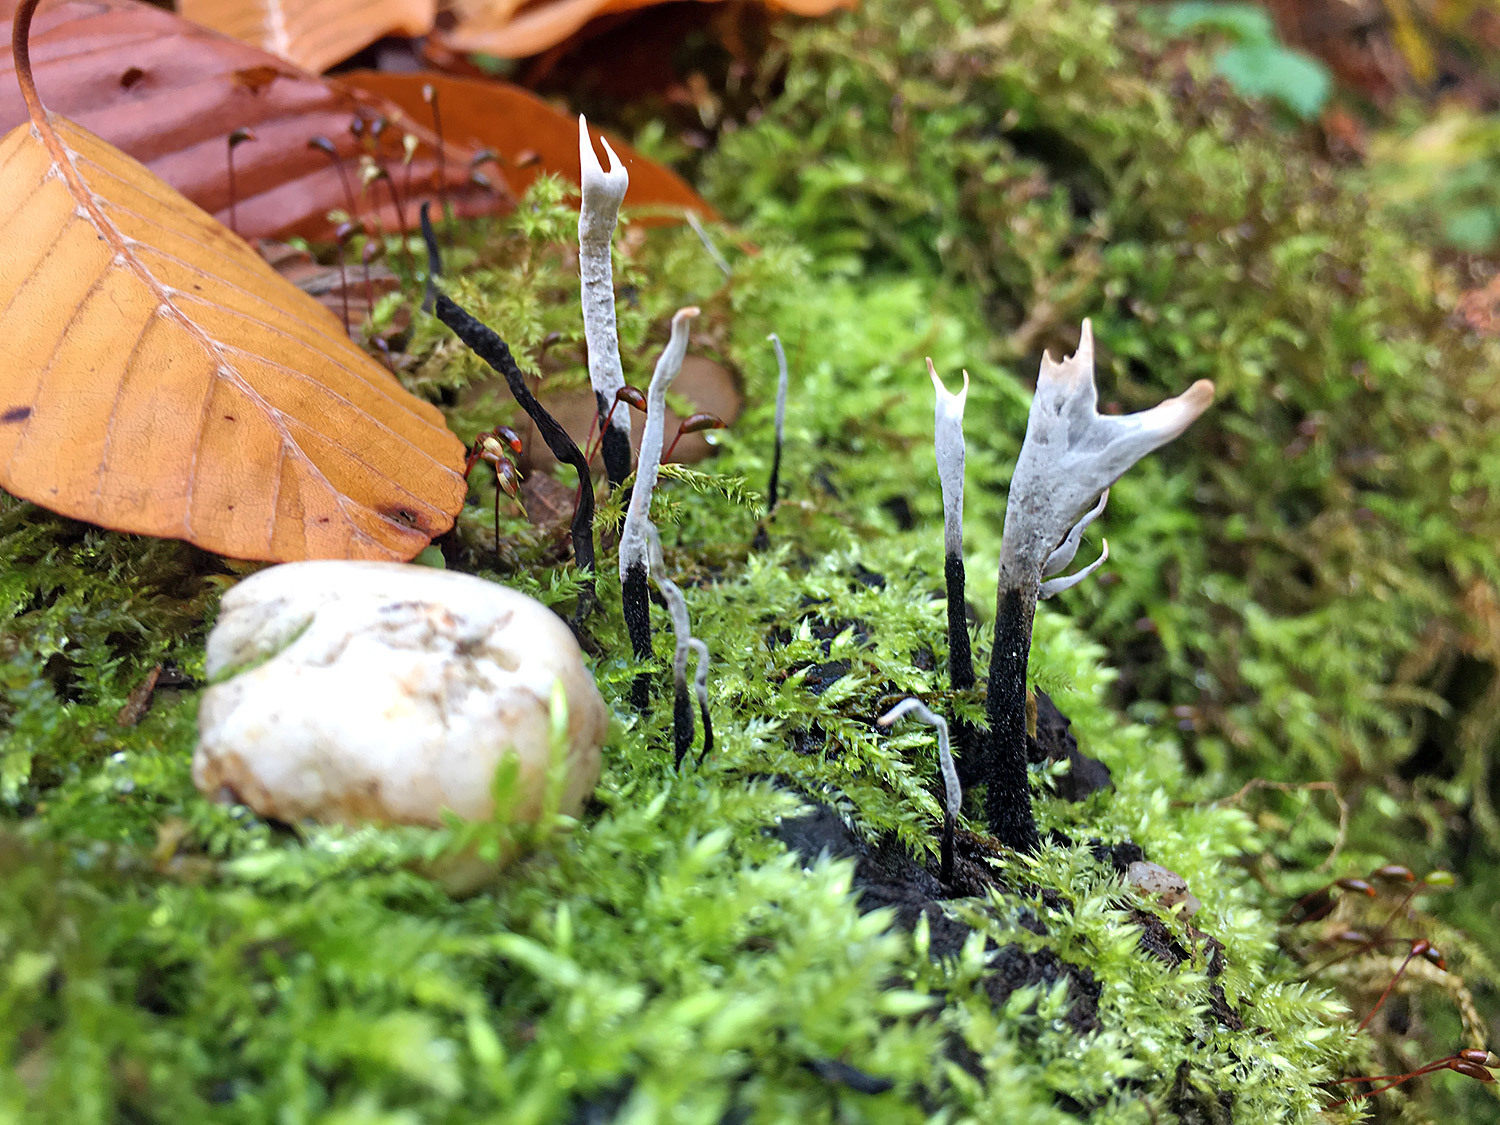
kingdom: Fungi
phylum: Ascomycota
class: Sordariomycetes
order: Xylariales
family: Xylariaceae
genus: Xylaria
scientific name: Xylaria hypoxylon
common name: Candle-snuff fungus
